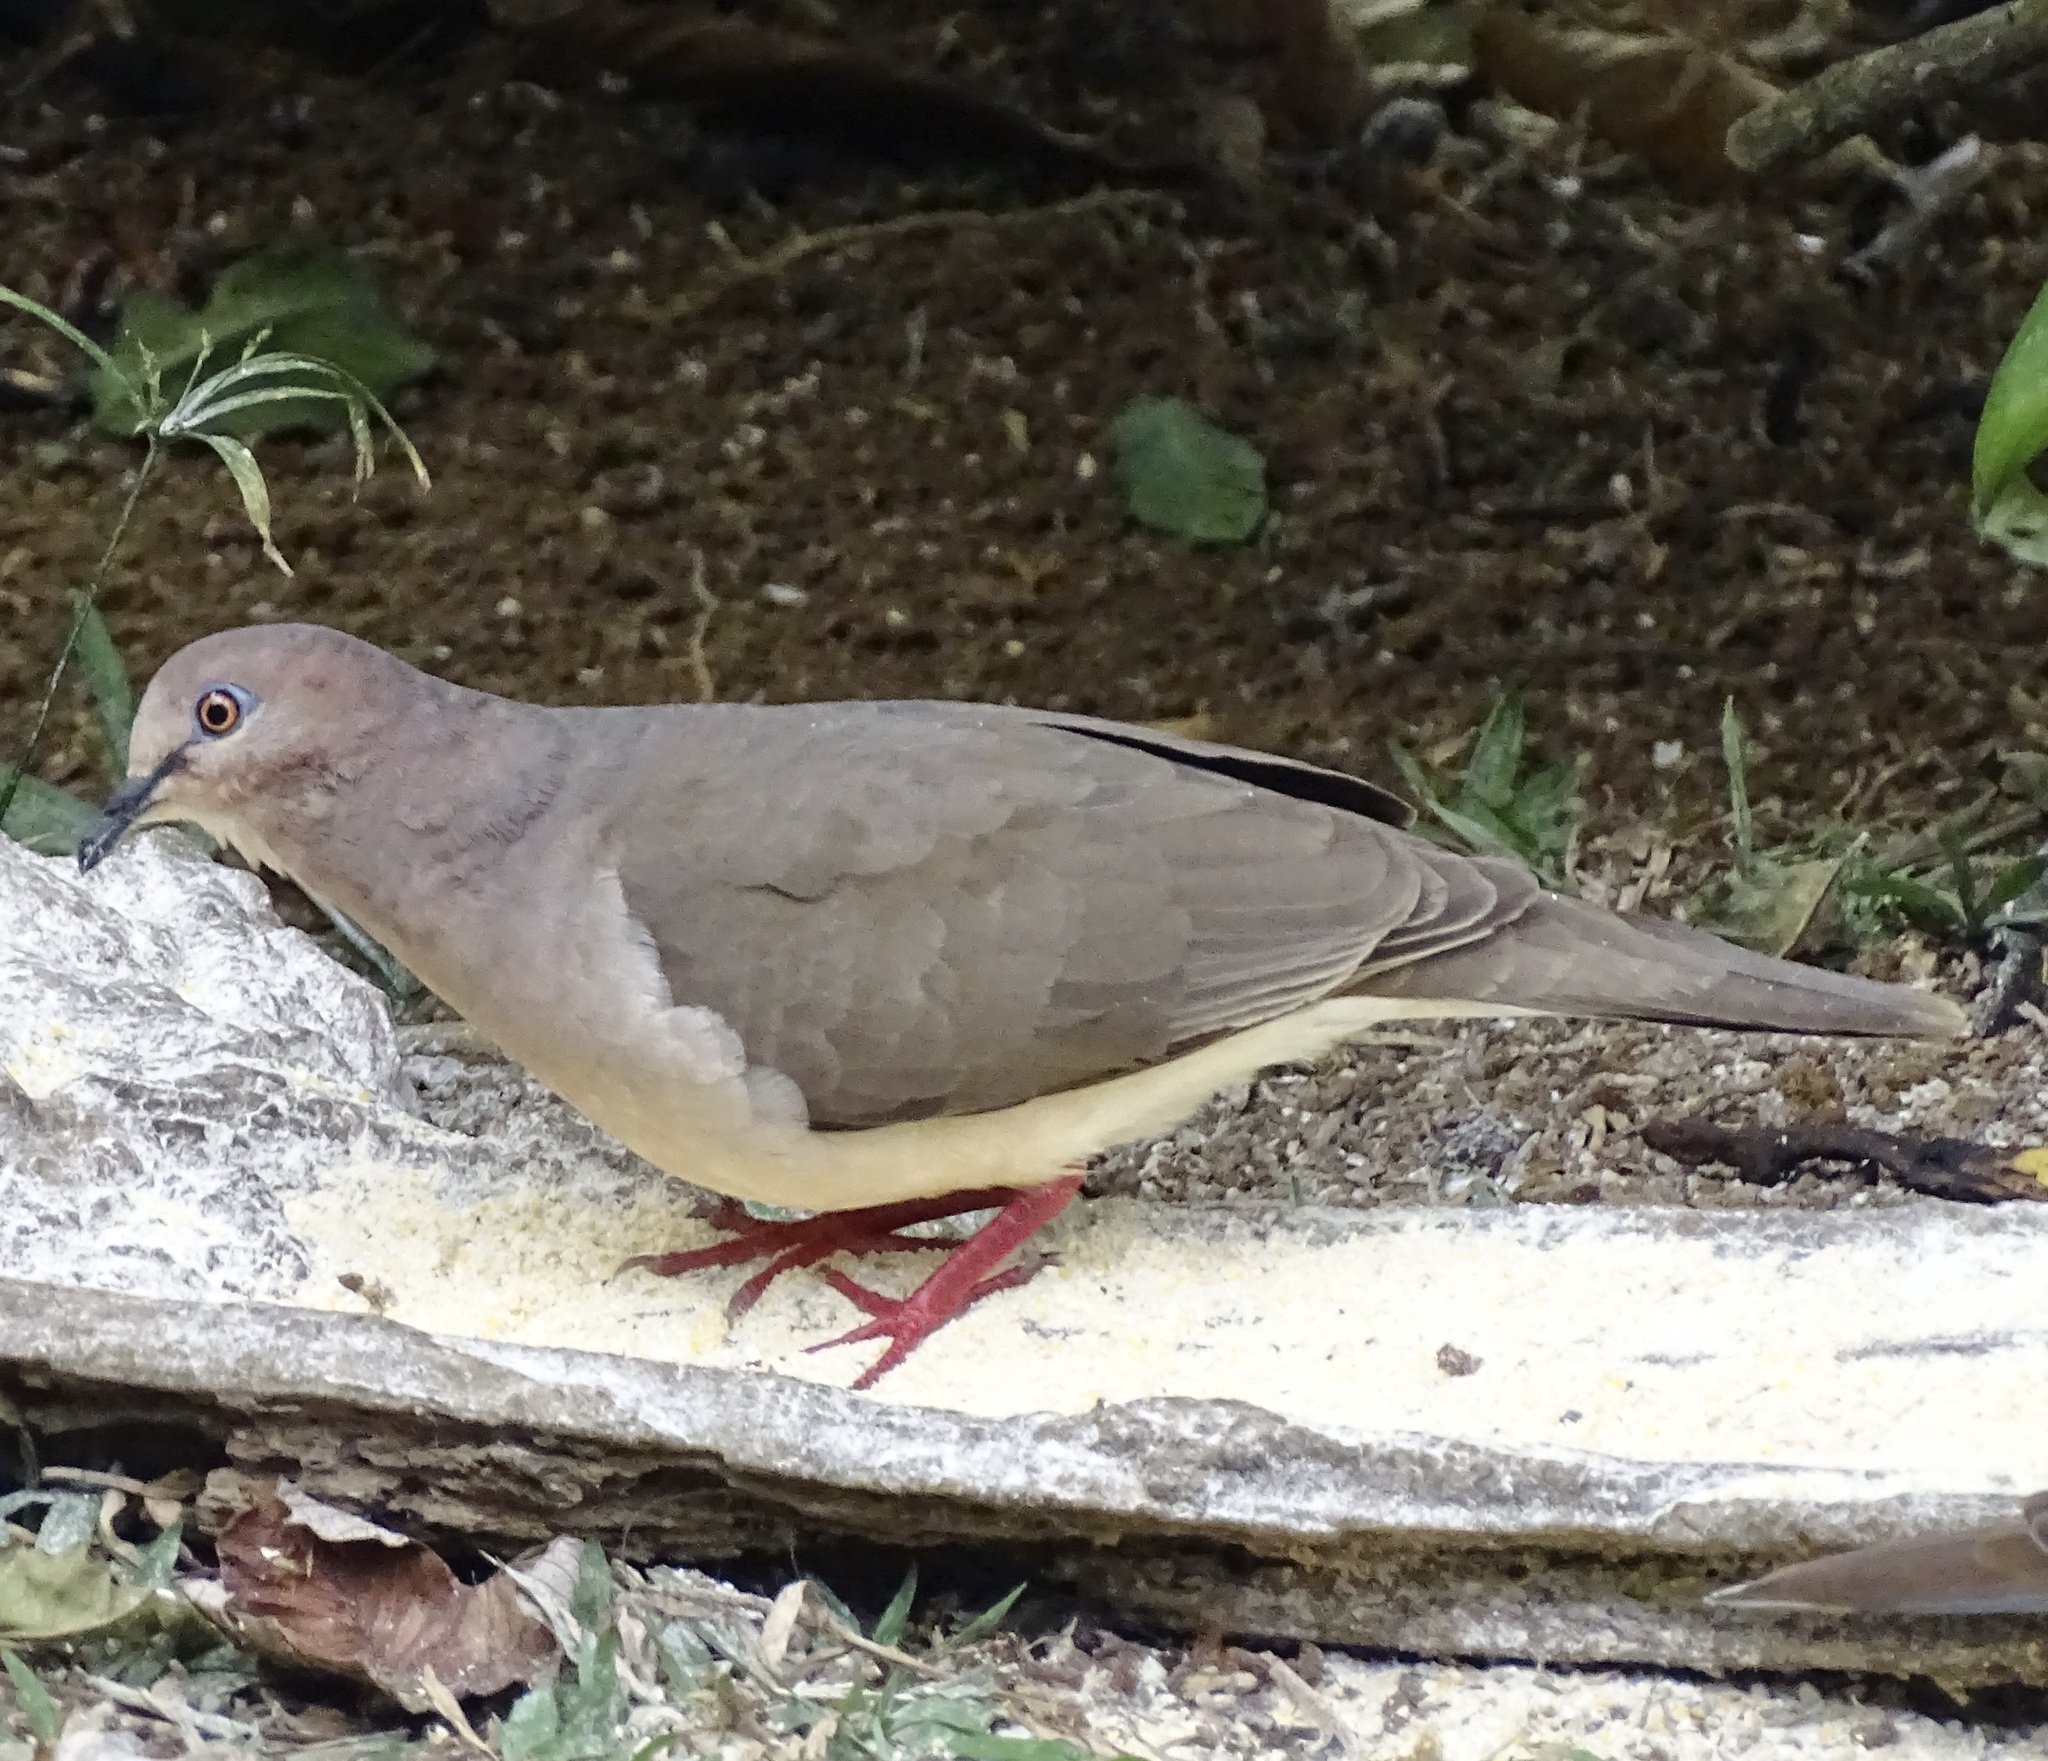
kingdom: Animalia
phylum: Chordata
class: Aves
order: Columbiformes
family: Columbidae
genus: Leptotila
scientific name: Leptotila verreauxi
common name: White-tipped dove
